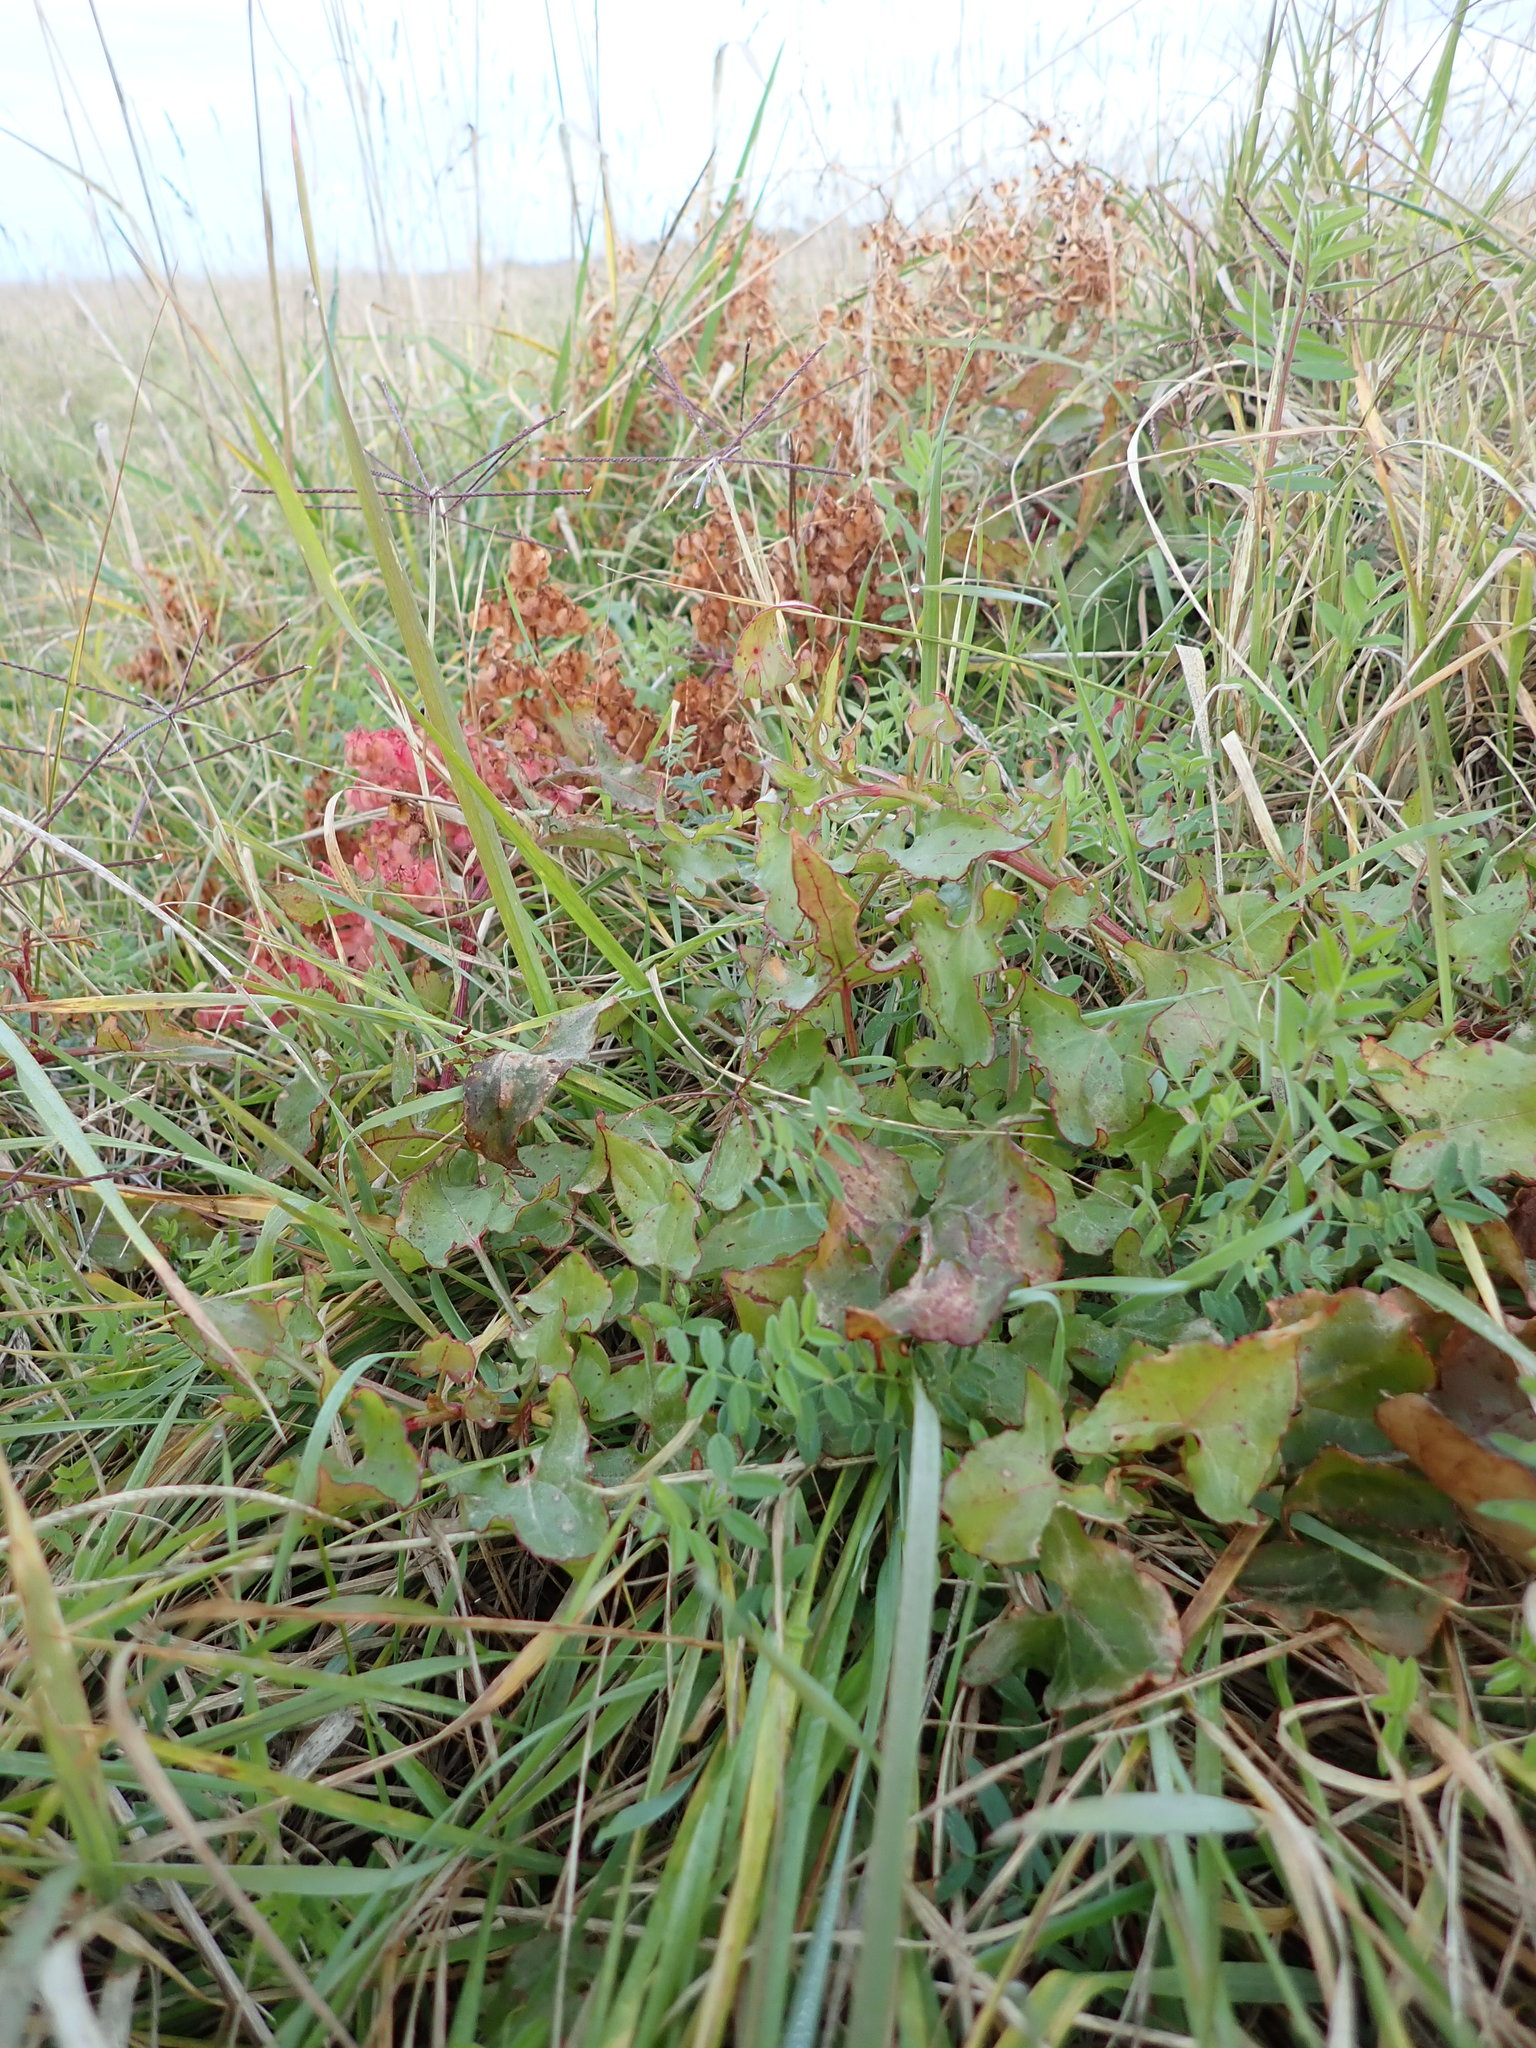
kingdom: Plantae
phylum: Tracheophyta
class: Magnoliopsida
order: Caryophyllales
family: Polygonaceae
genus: Rumex
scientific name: Rumex sagittatus
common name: Climbing dock
